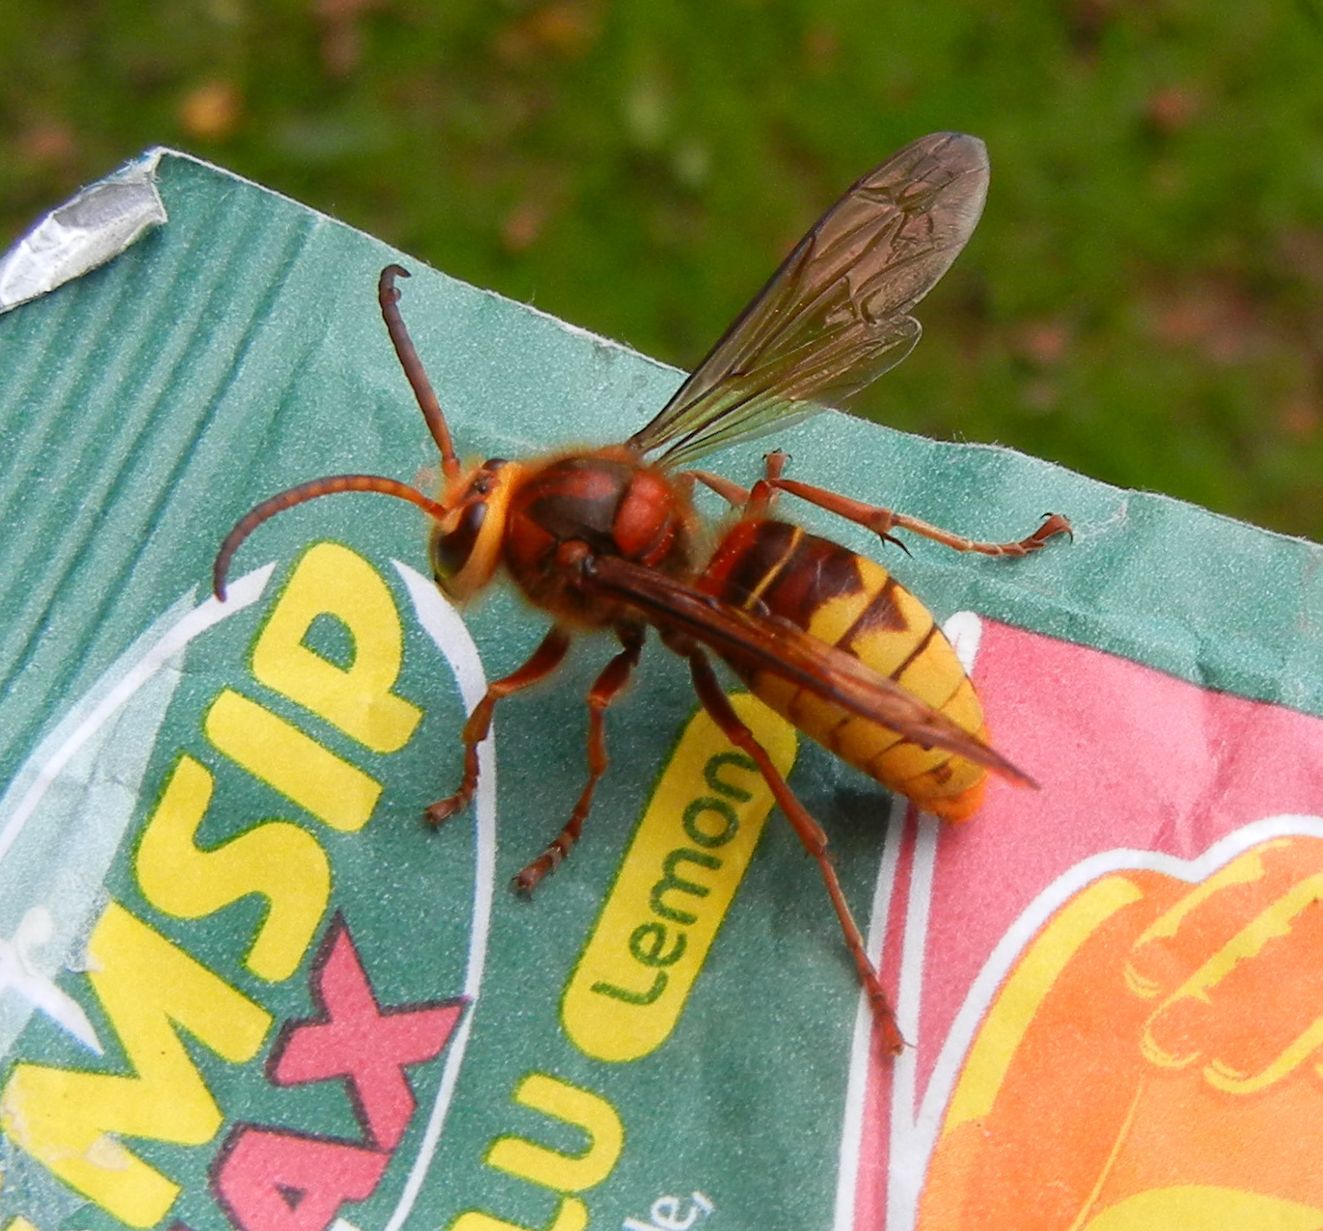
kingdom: Animalia
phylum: Arthropoda
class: Insecta
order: Hymenoptera
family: Vespidae
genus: Vespa
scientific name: Vespa crabro
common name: Hornet
